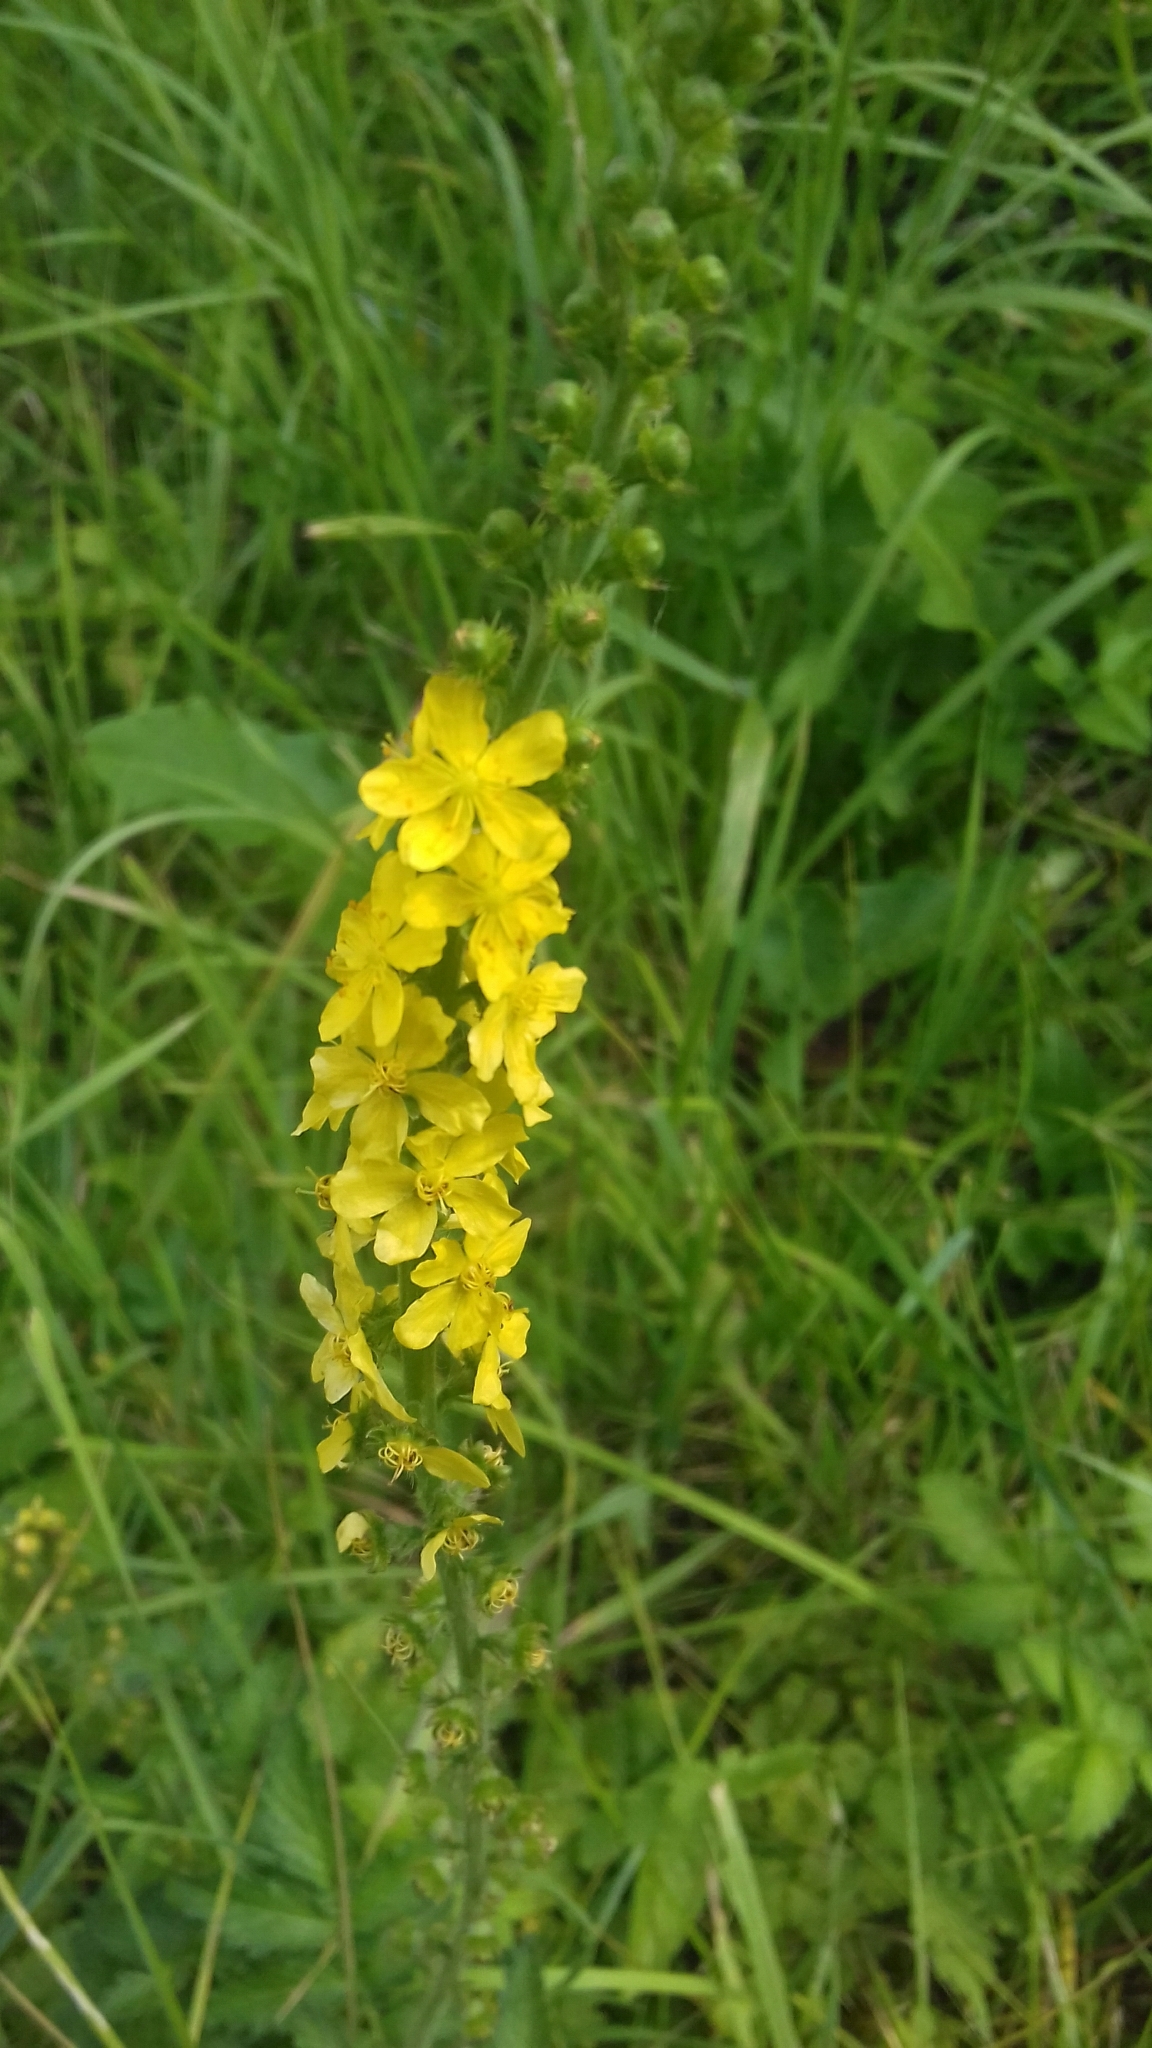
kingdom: Plantae
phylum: Tracheophyta
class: Magnoliopsida
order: Rosales
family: Rosaceae
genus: Agrimonia
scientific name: Agrimonia eupatoria
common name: Agrimony
